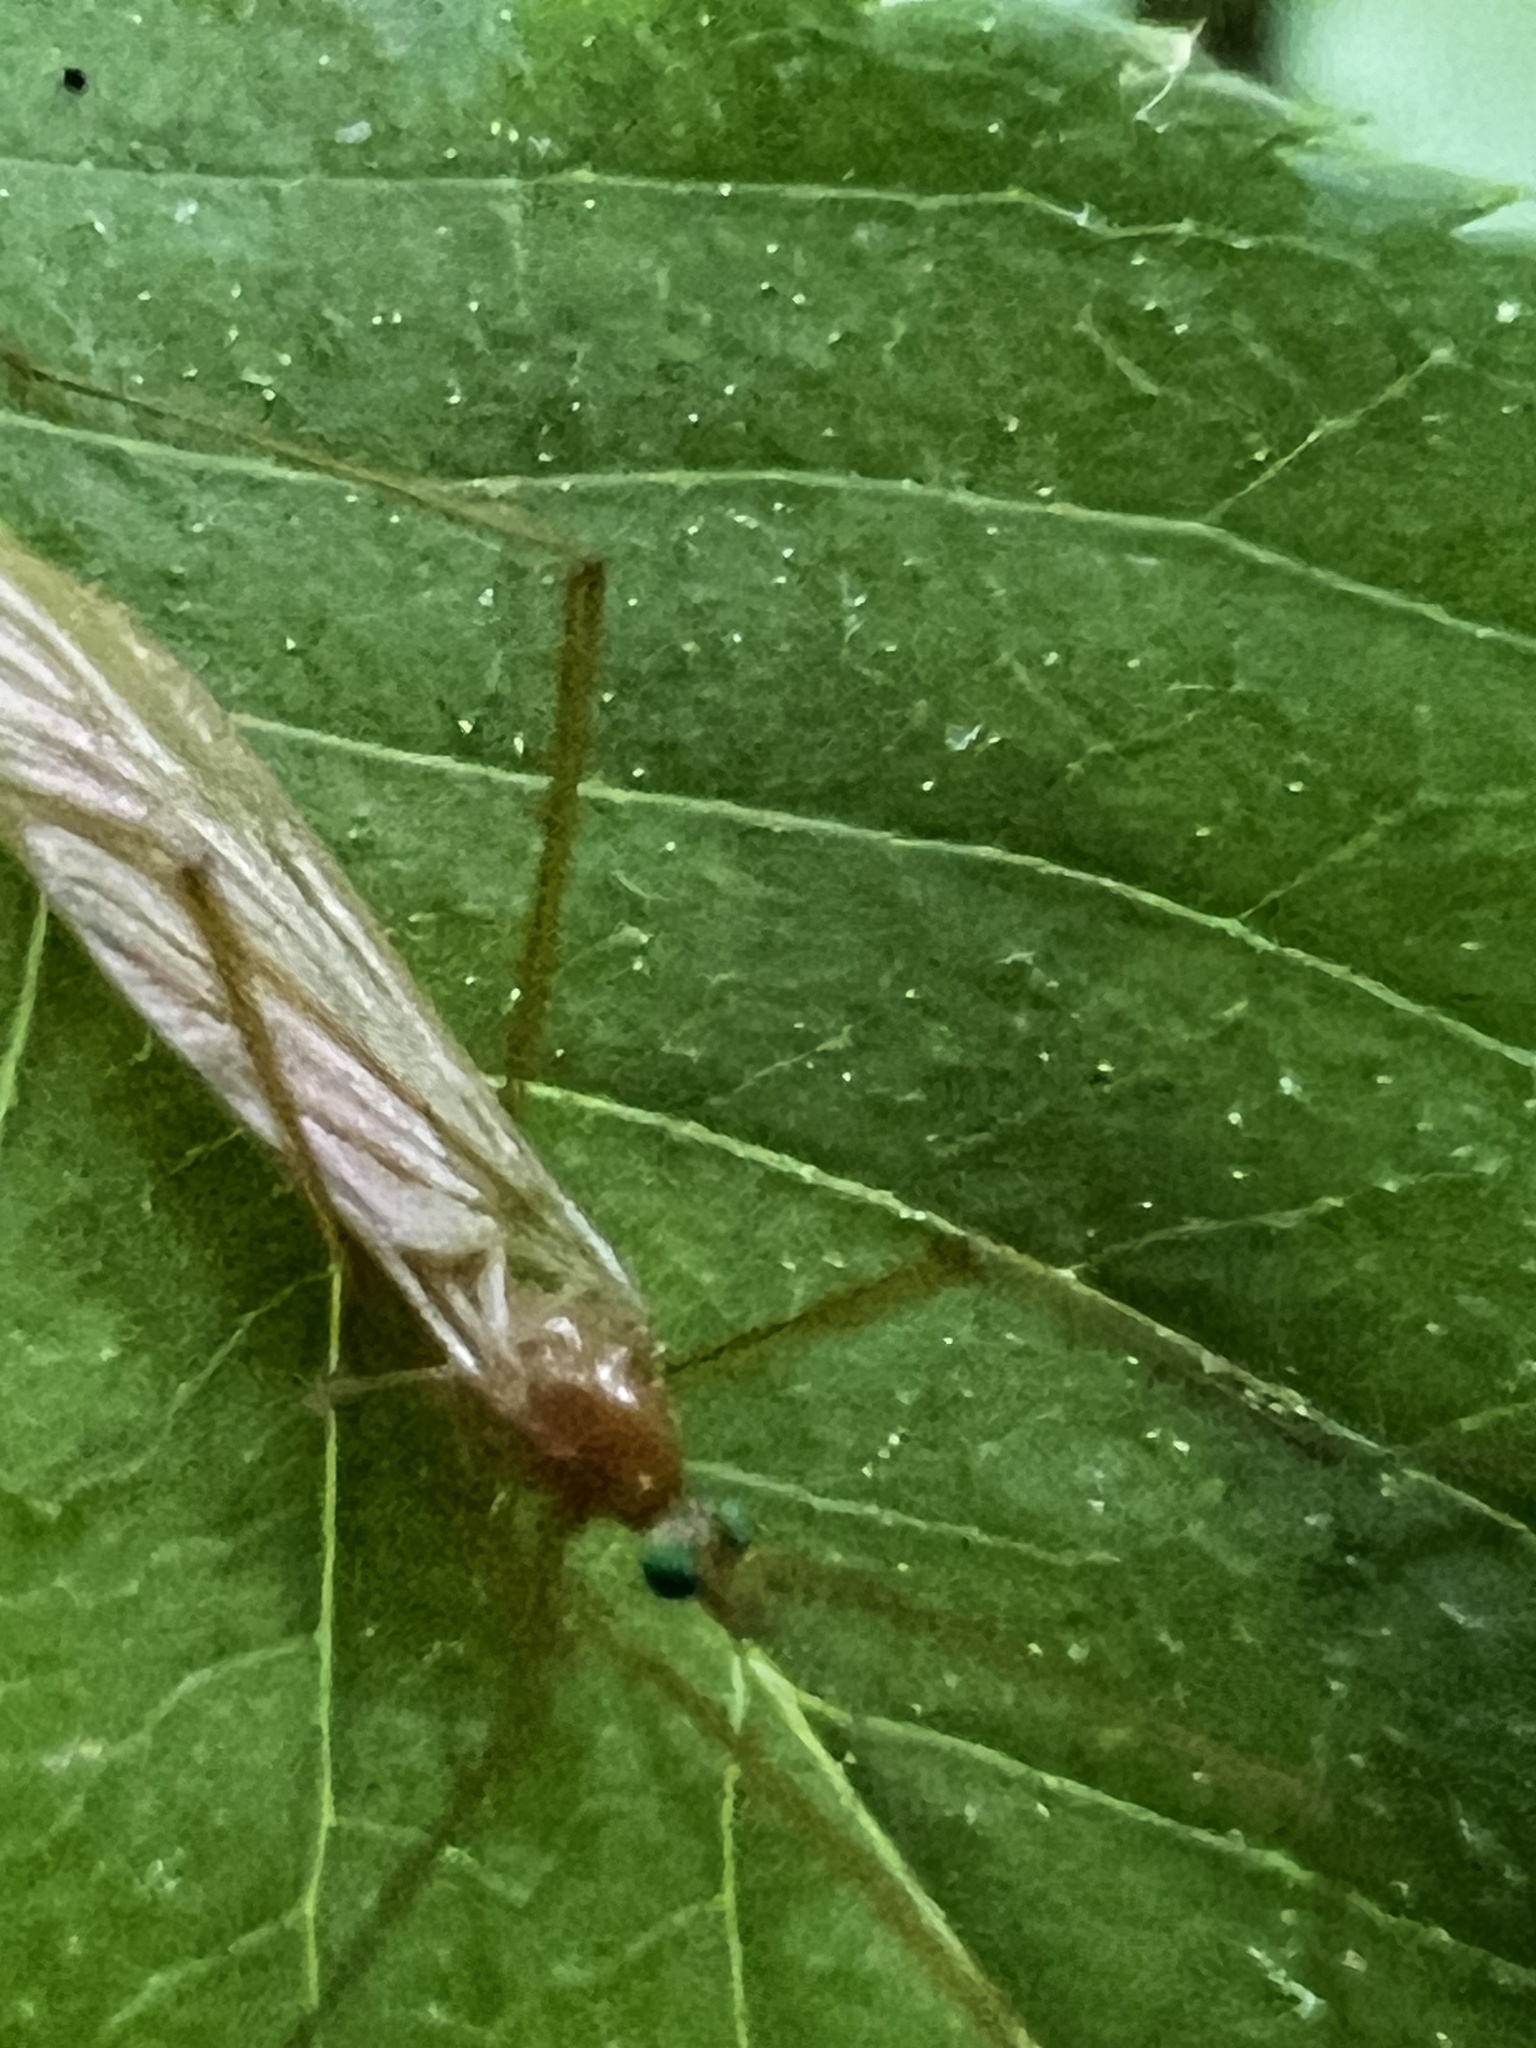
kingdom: Animalia
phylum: Arthropoda
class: Insecta
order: Diptera
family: Limoniidae
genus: Atarba
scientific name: Atarba picticornis
